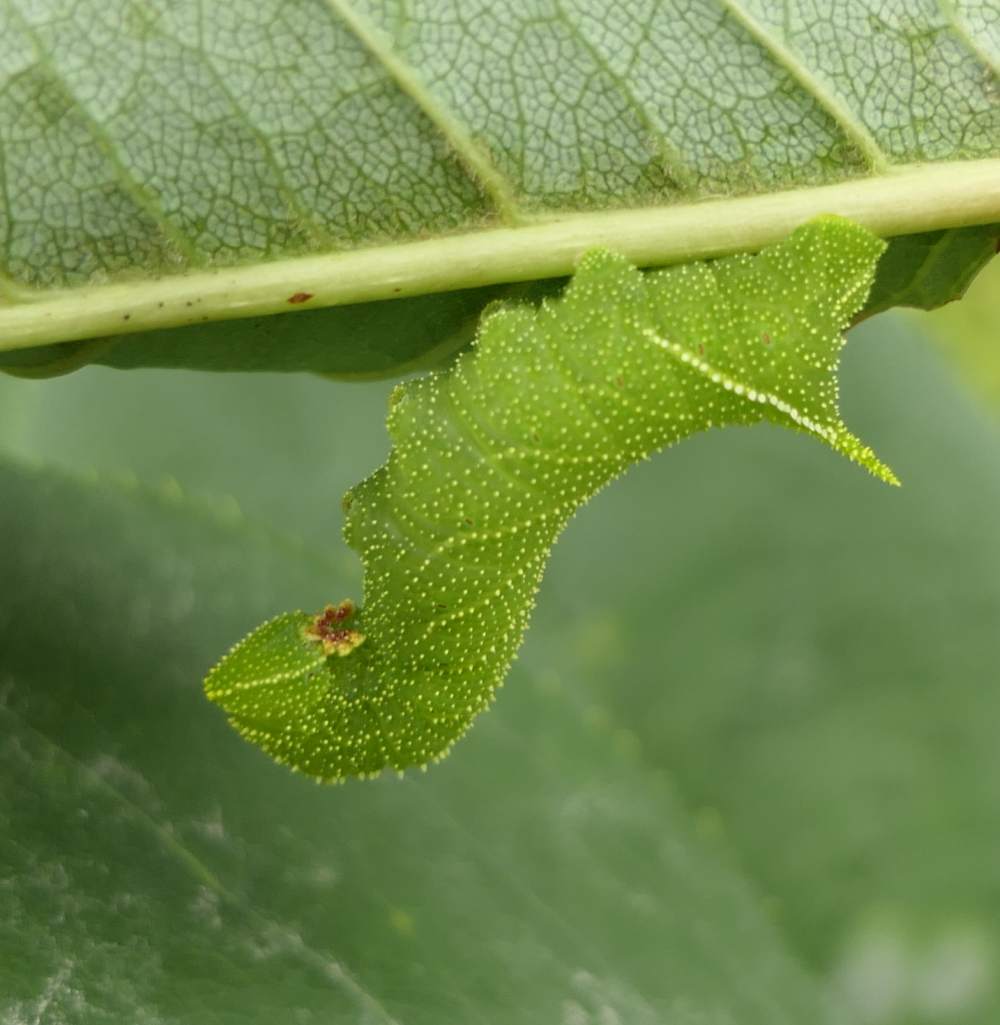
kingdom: Animalia
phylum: Arthropoda
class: Insecta
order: Lepidoptera
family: Sphingidae
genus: Paonias
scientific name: Paonias excaecata
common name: Blind-eyed sphinx
